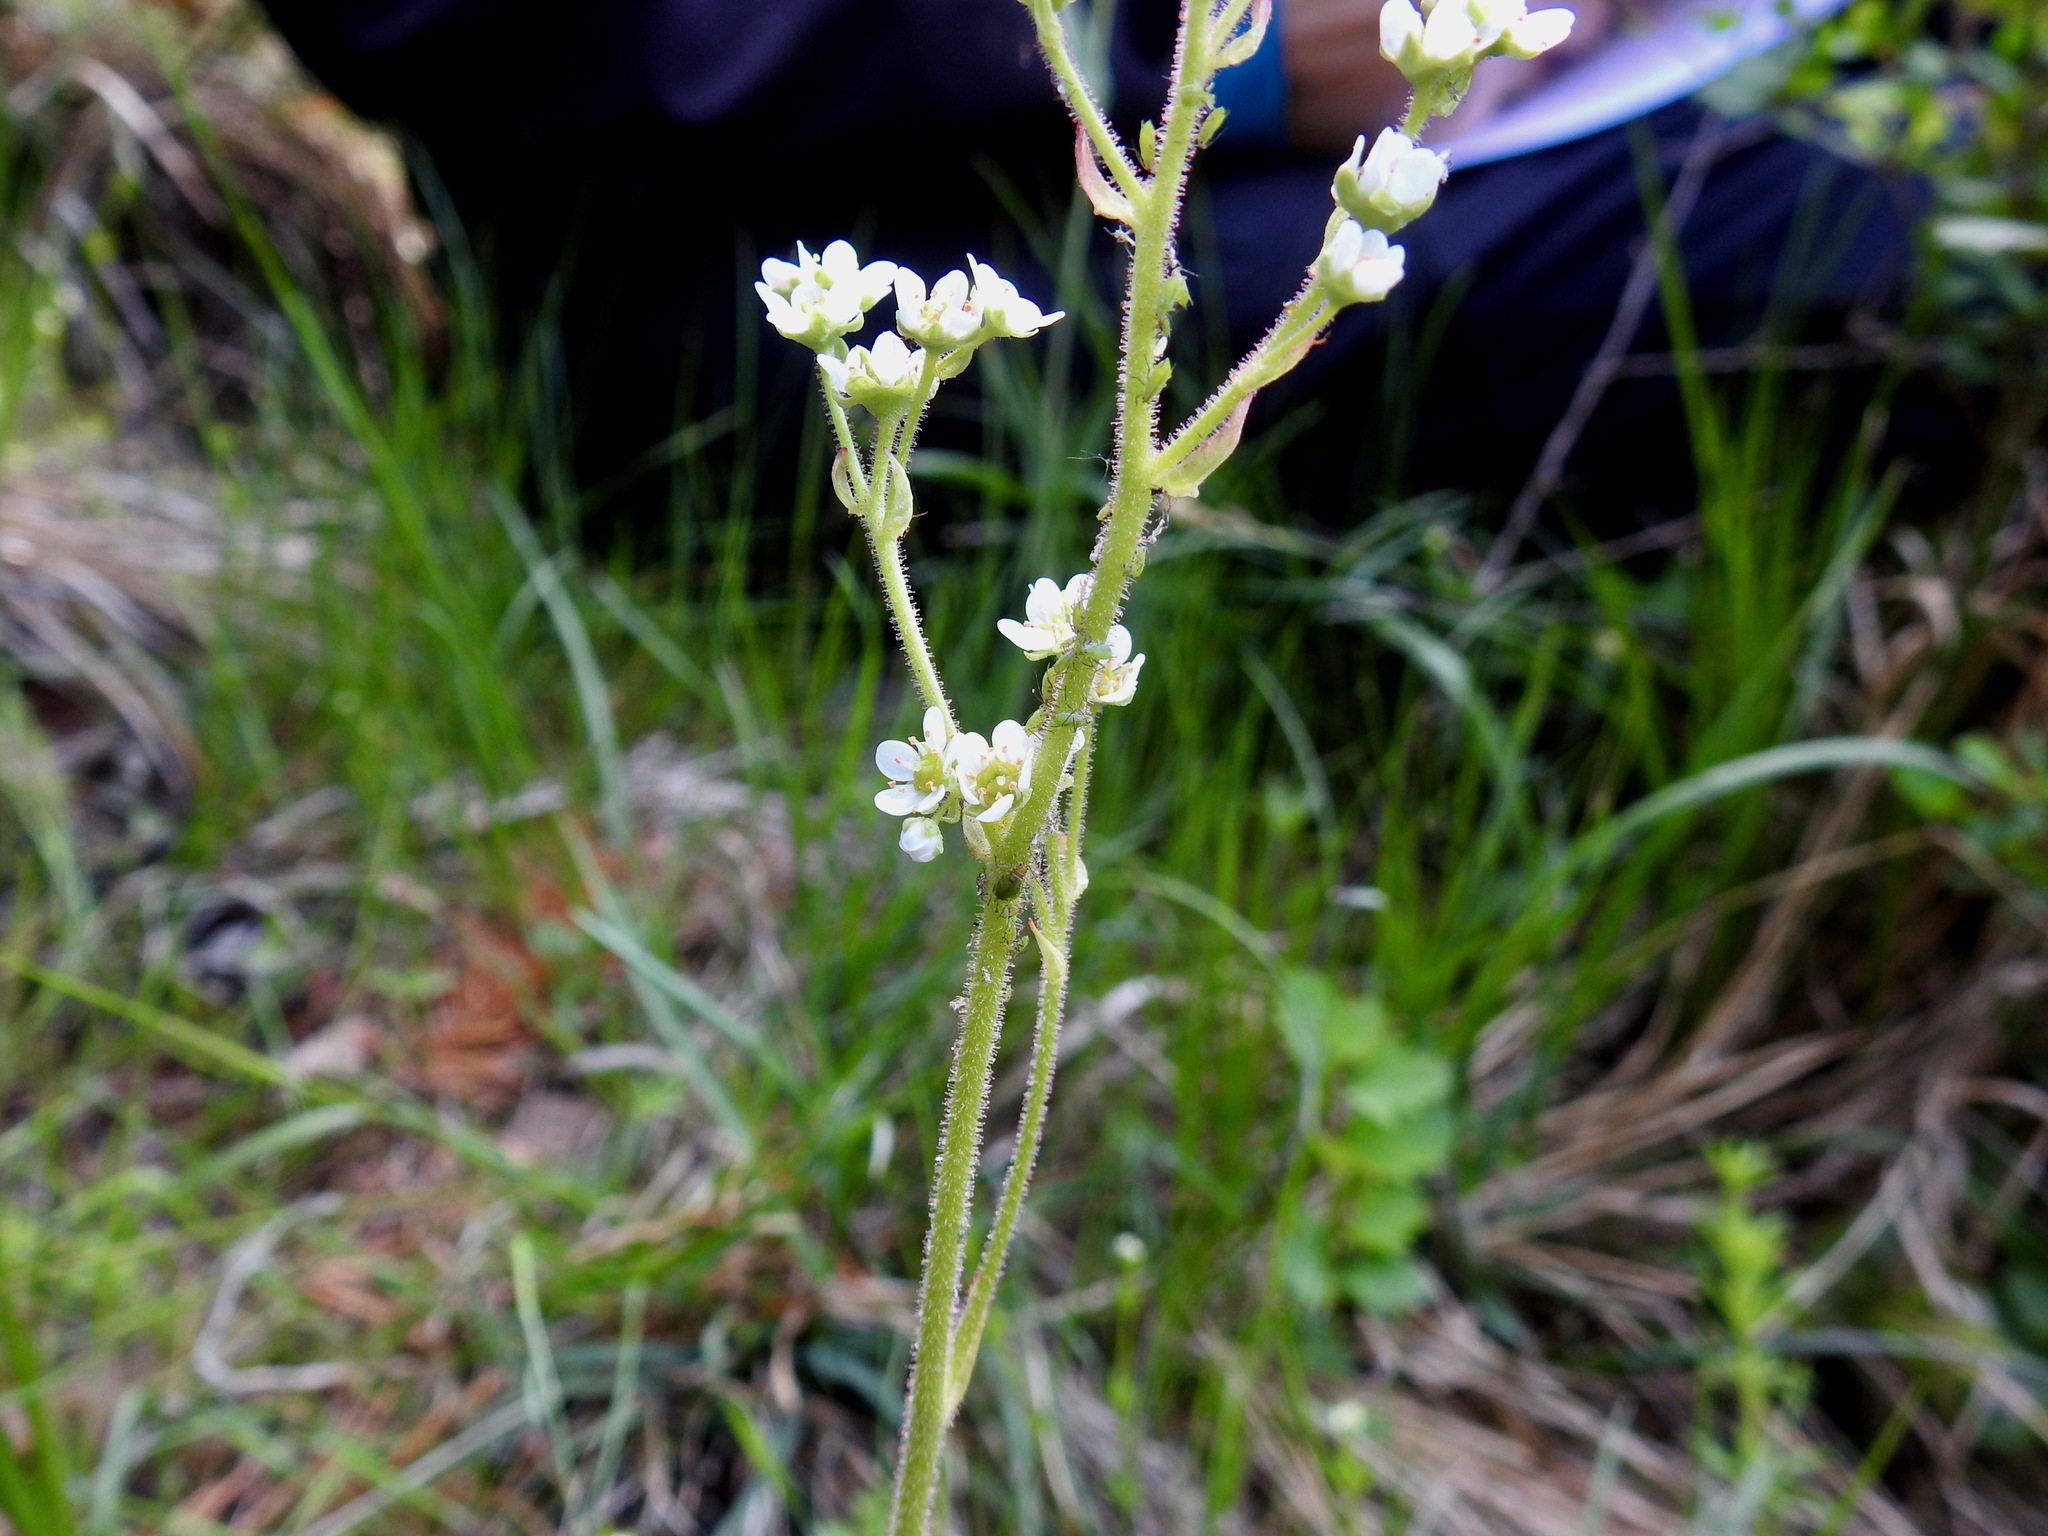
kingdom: Plantae
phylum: Tracheophyta
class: Magnoliopsida
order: Saxifragales
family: Saxifragaceae
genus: Micranthes
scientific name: Micranthes integrifolia
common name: Wholeleaf saxifrage
